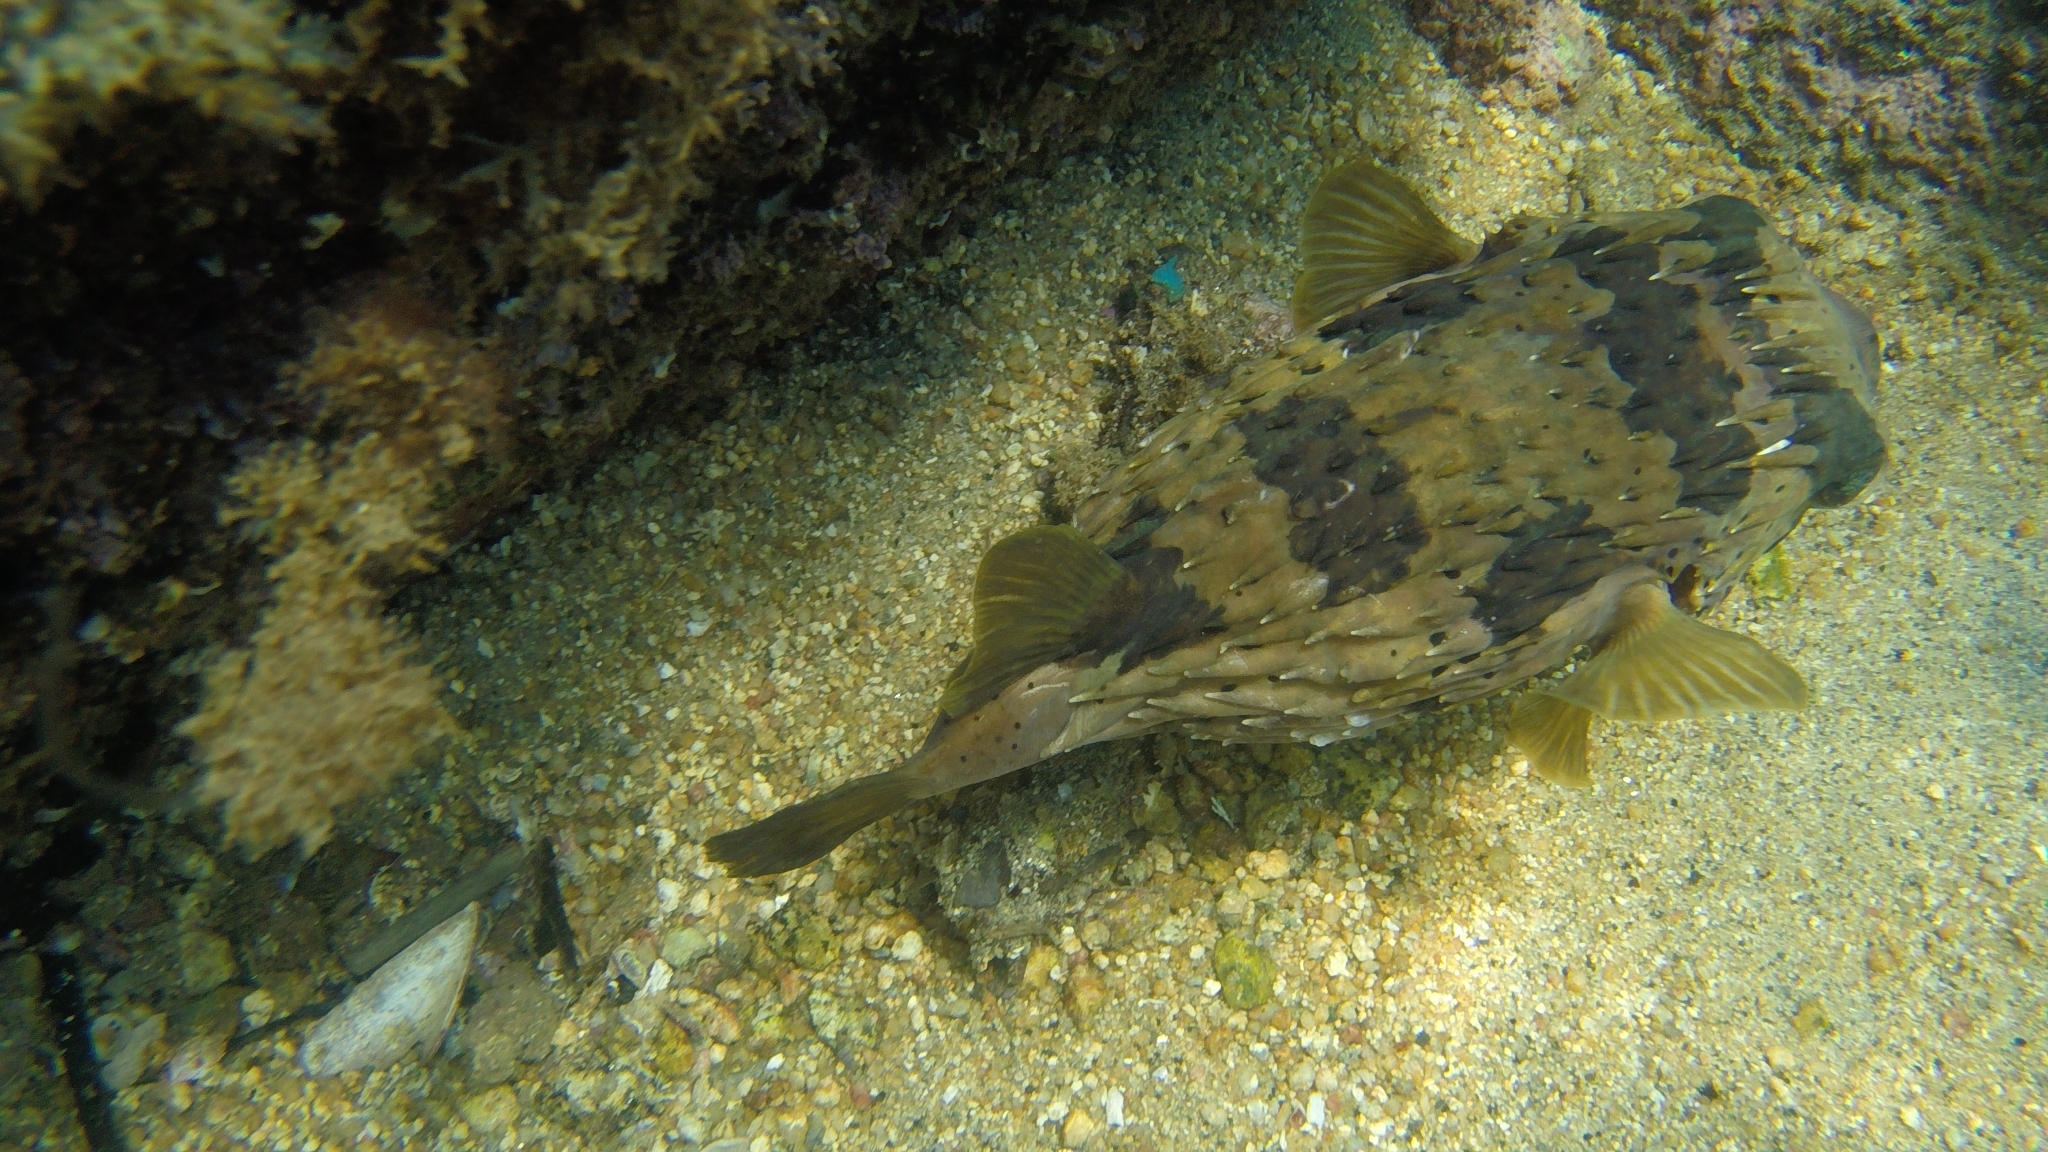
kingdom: Animalia
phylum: Chordata
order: Tetraodontiformes
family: Diodontidae
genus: Diodon
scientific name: Diodon holocanthus
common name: Balloonfish
